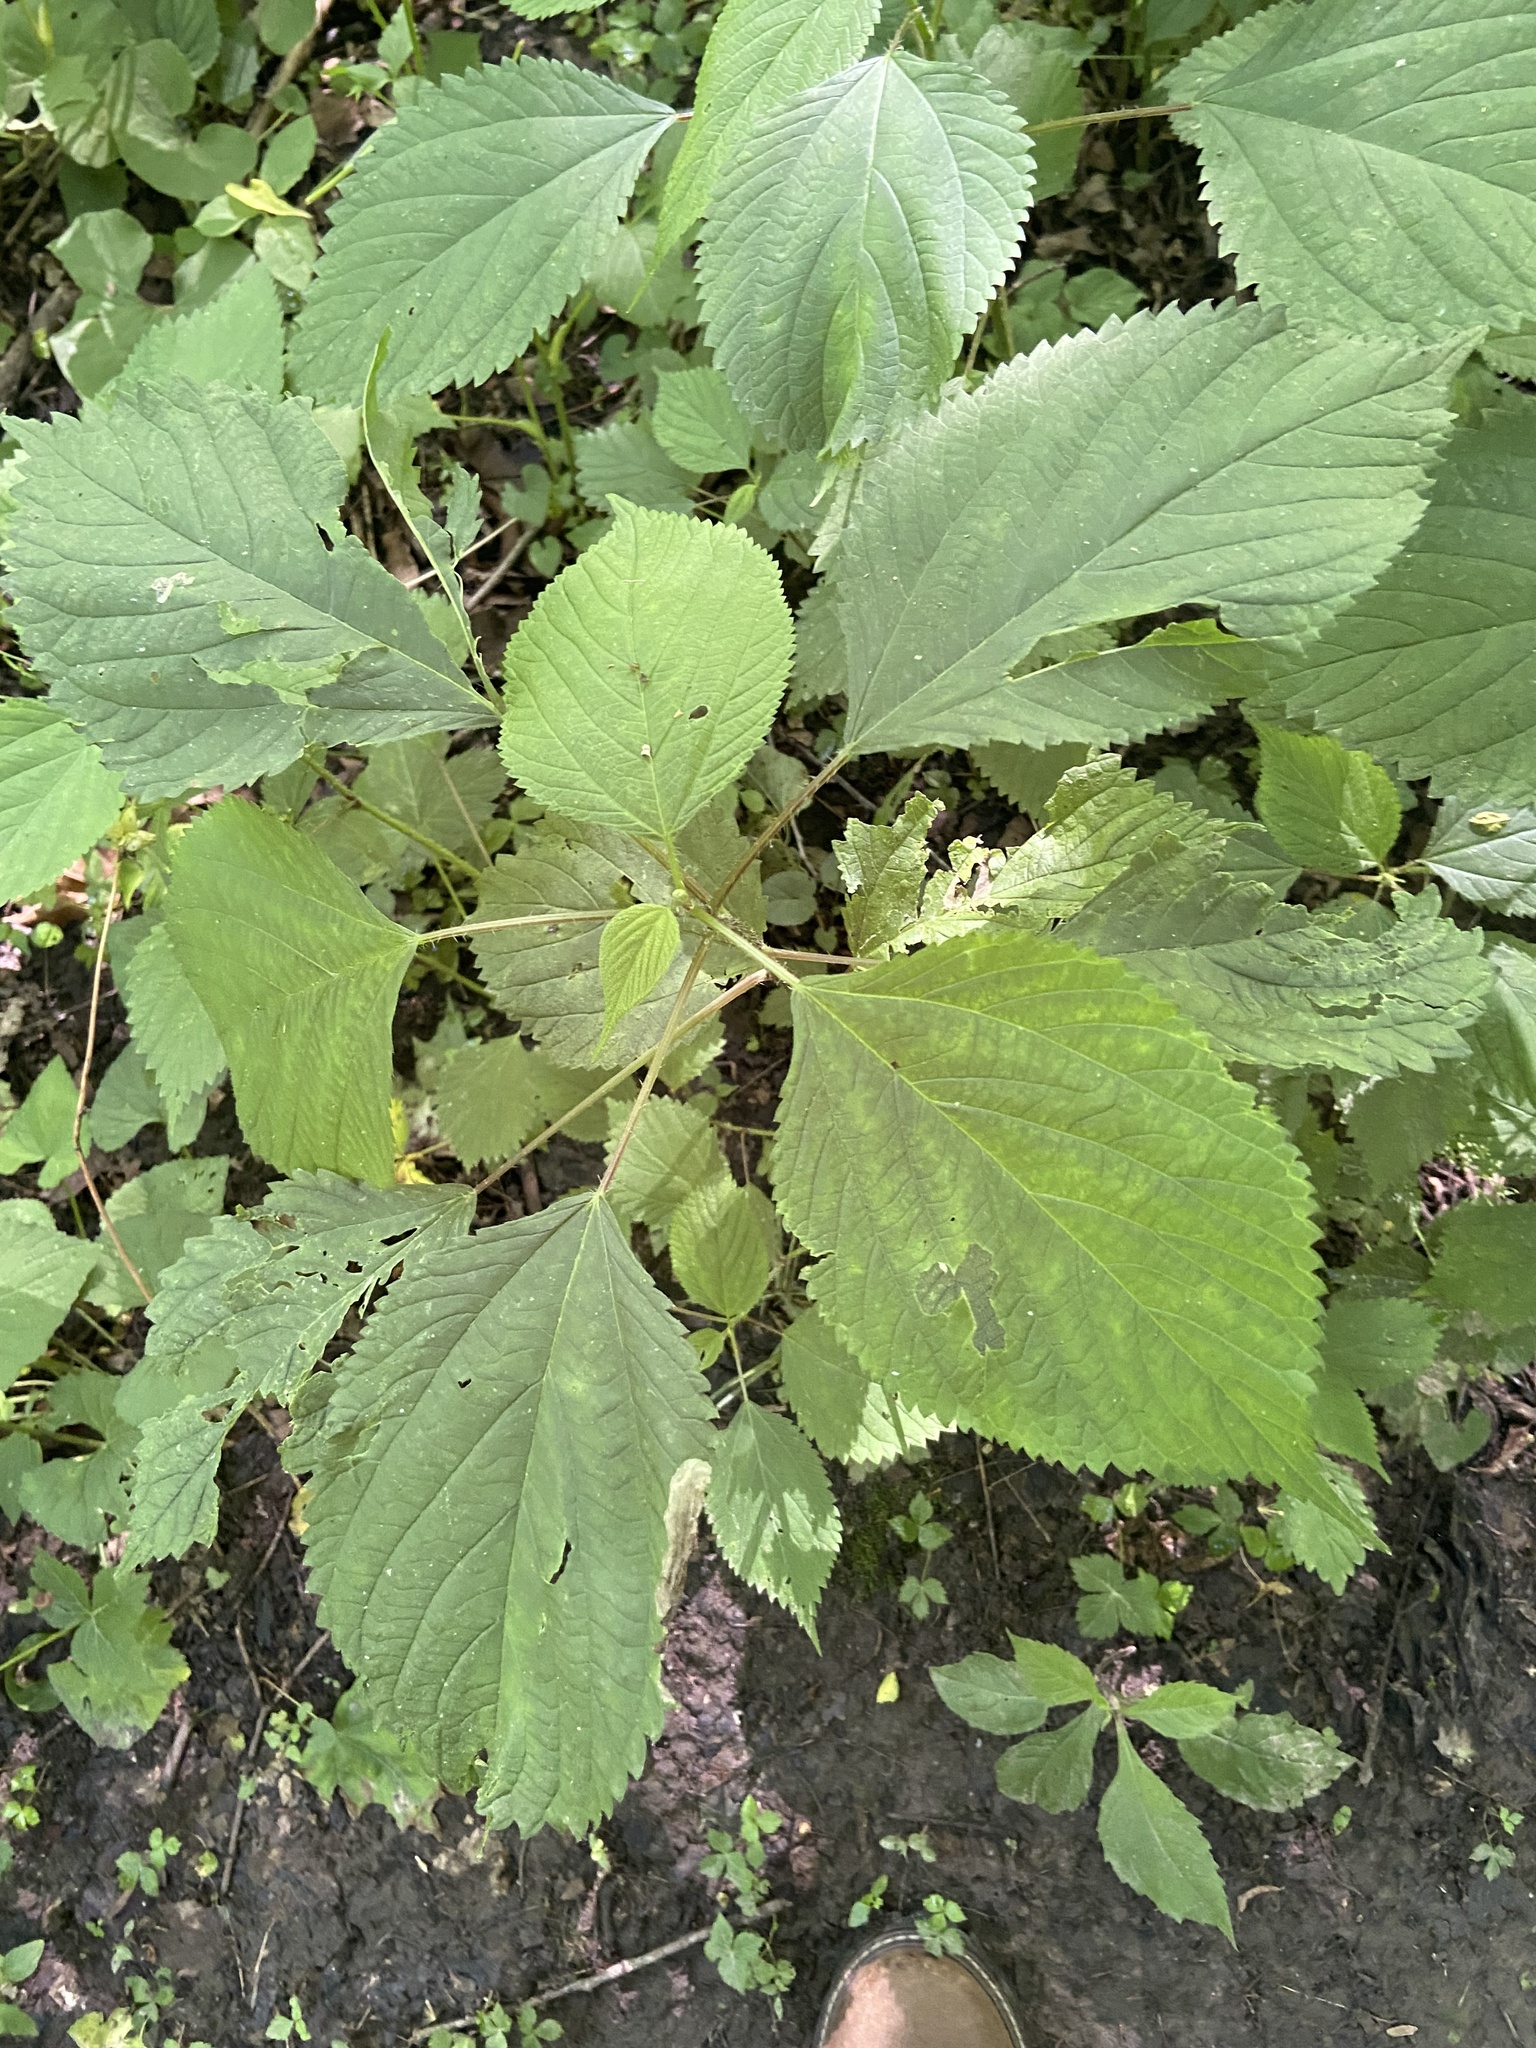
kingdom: Animalia
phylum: Arthropoda
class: Insecta
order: Diptera
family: Cecidomyiidae
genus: Dasineura
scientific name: Dasineura investita
